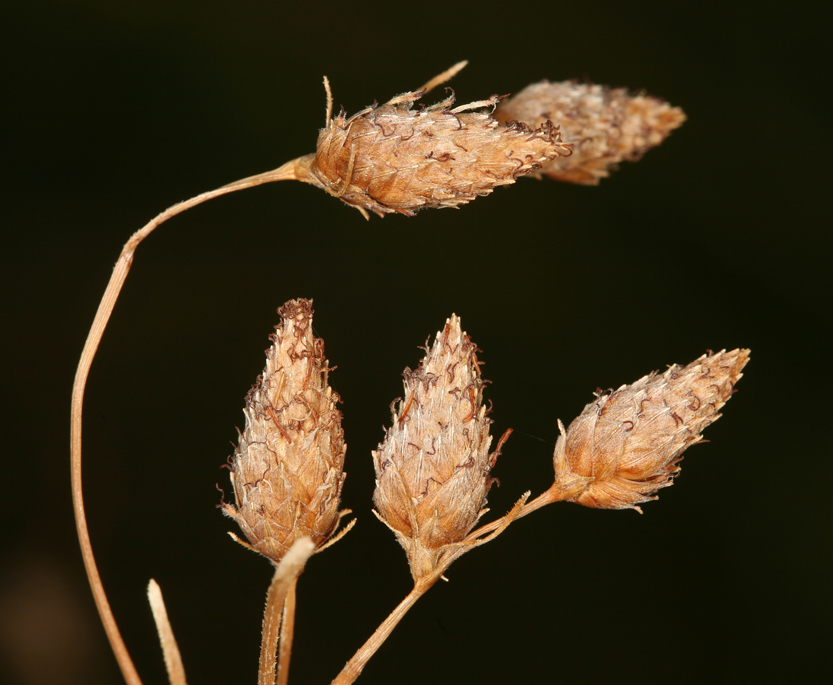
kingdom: Plantae
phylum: Tracheophyta
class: Liliopsida
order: Poales
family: Cyperaceae
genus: Fimbristylis
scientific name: Fimbristylis thermalis
